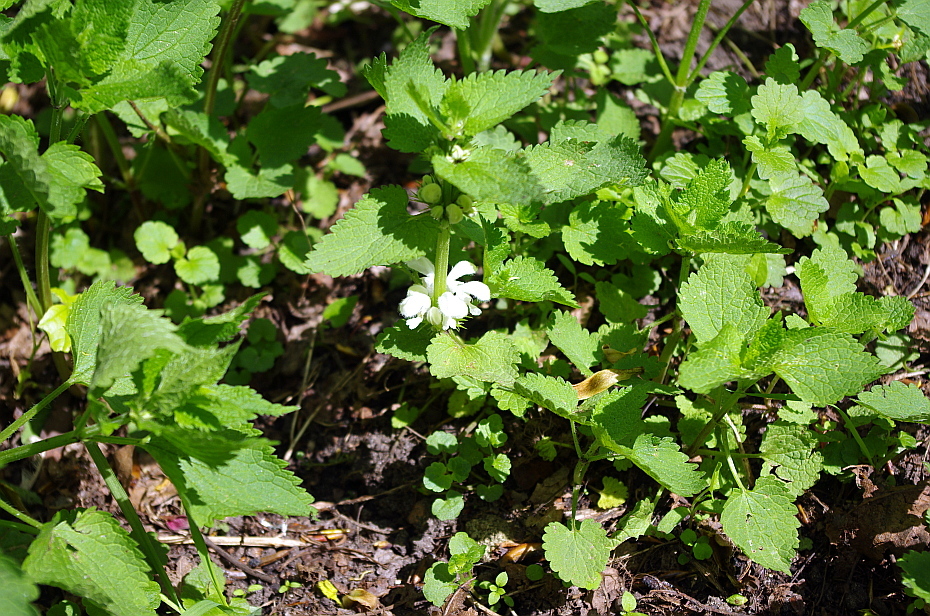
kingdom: Plantae
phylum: Tracheophyta
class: Magnoliopsida
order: Lamiales
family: Lamiaceae
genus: Lamium
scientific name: Lamium album
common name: White dead-nettle
